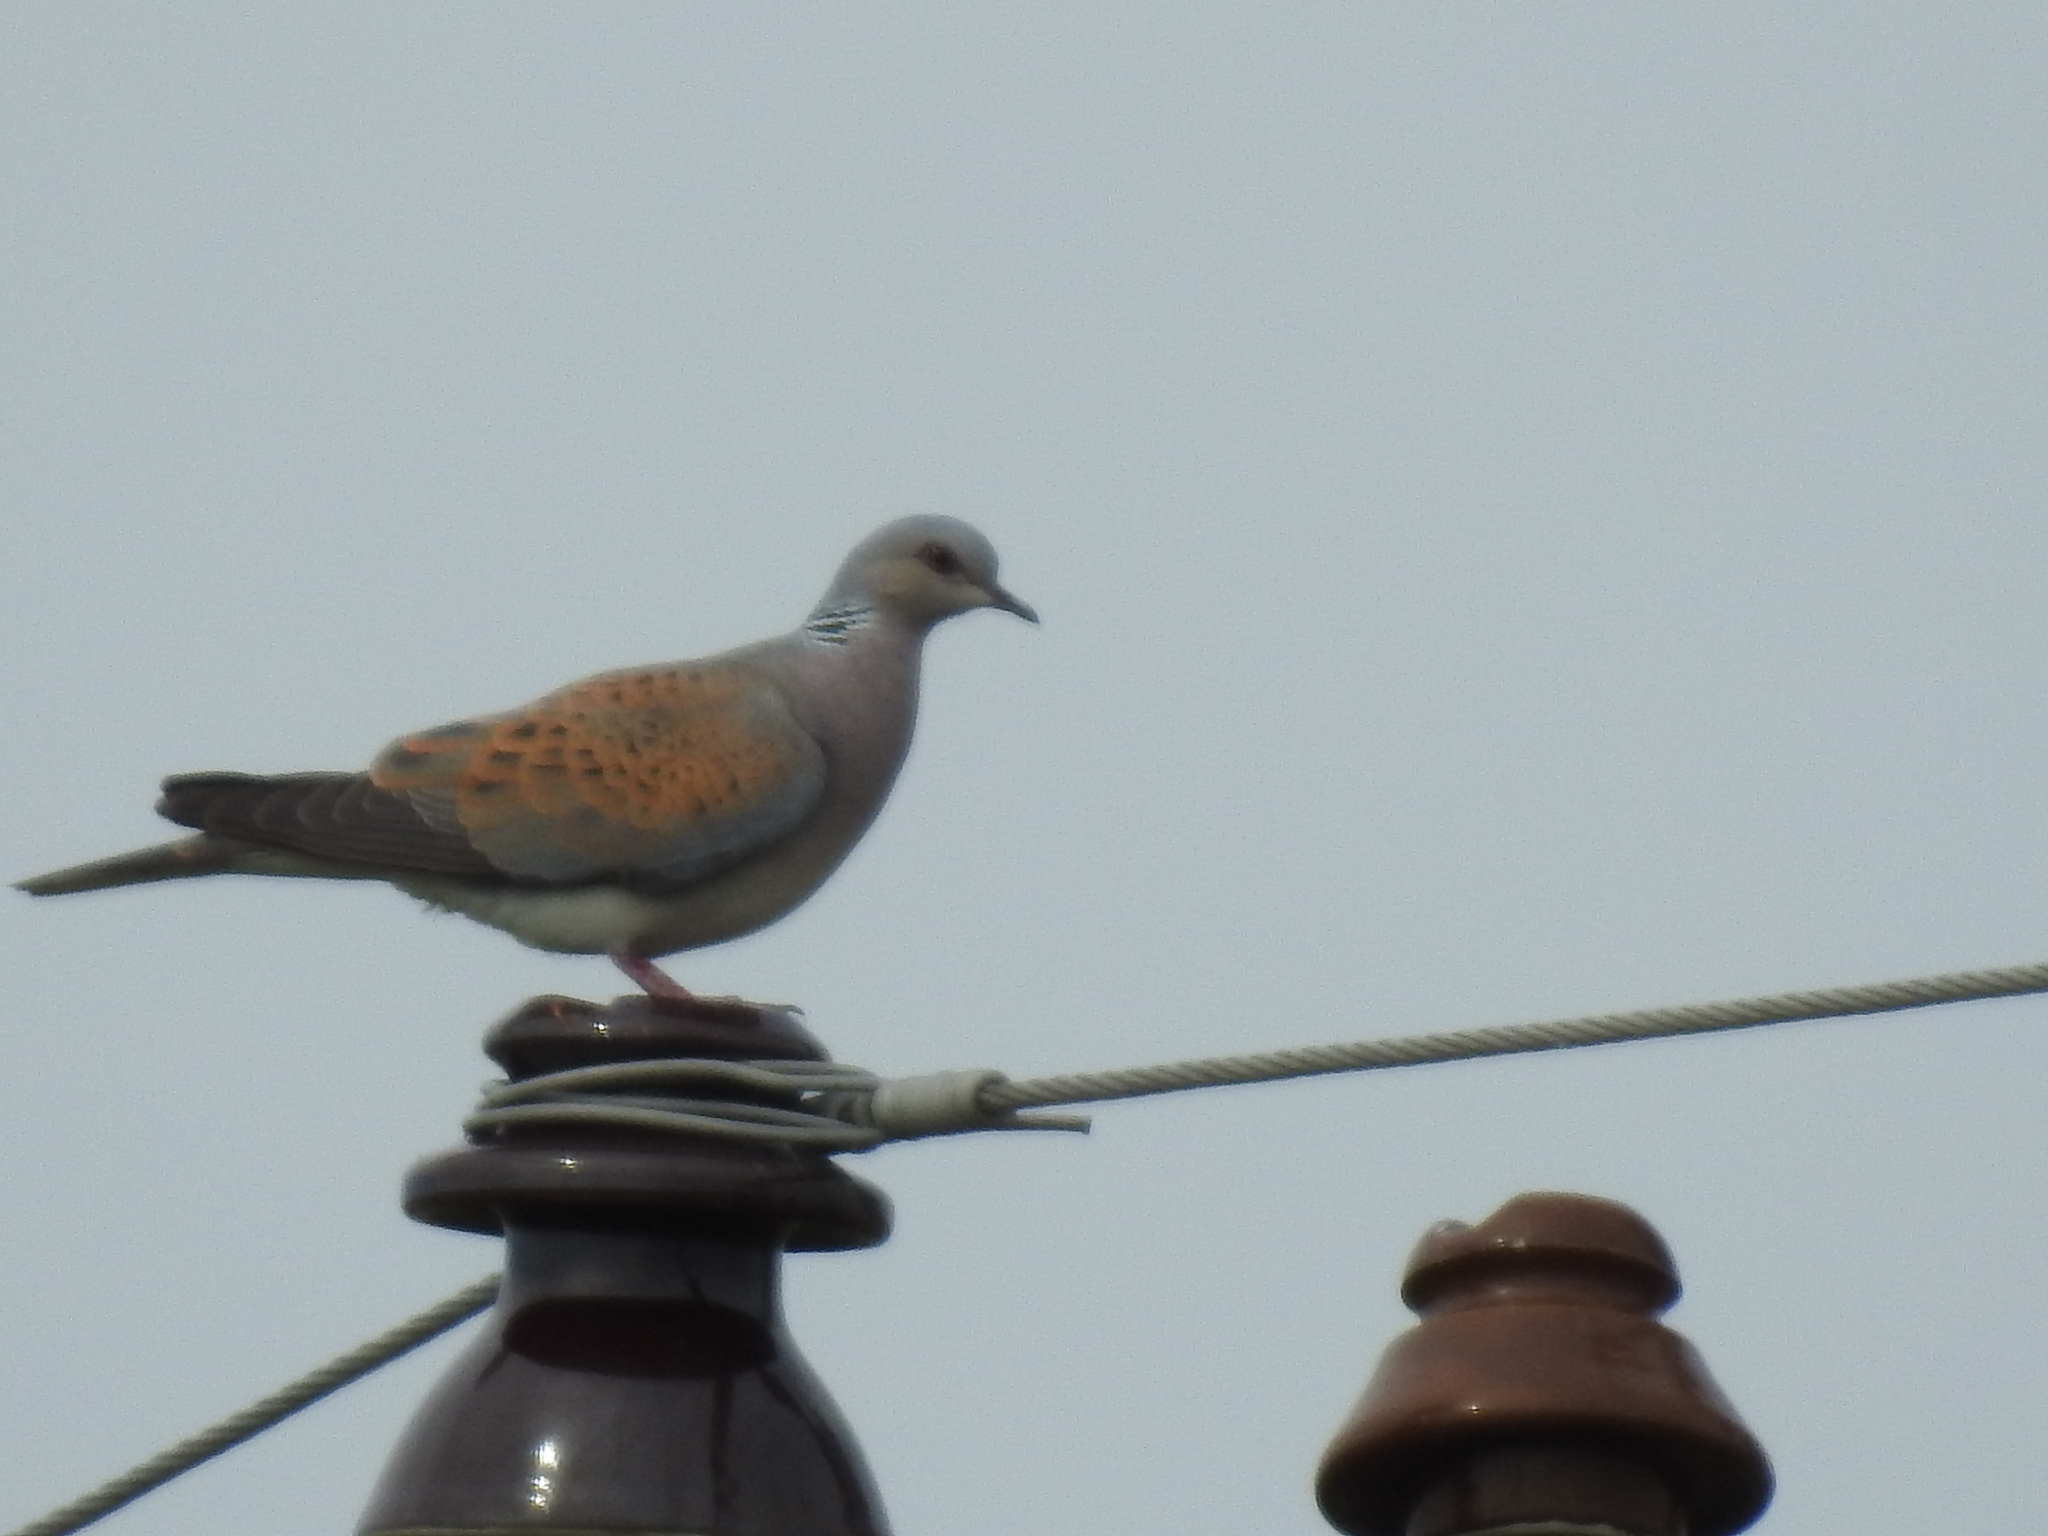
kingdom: Animalia
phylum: Chordata
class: Aves
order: Columbiformes
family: Columbidae
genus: Streptopelia
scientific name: Streptopelia turtur
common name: European turtle dove
